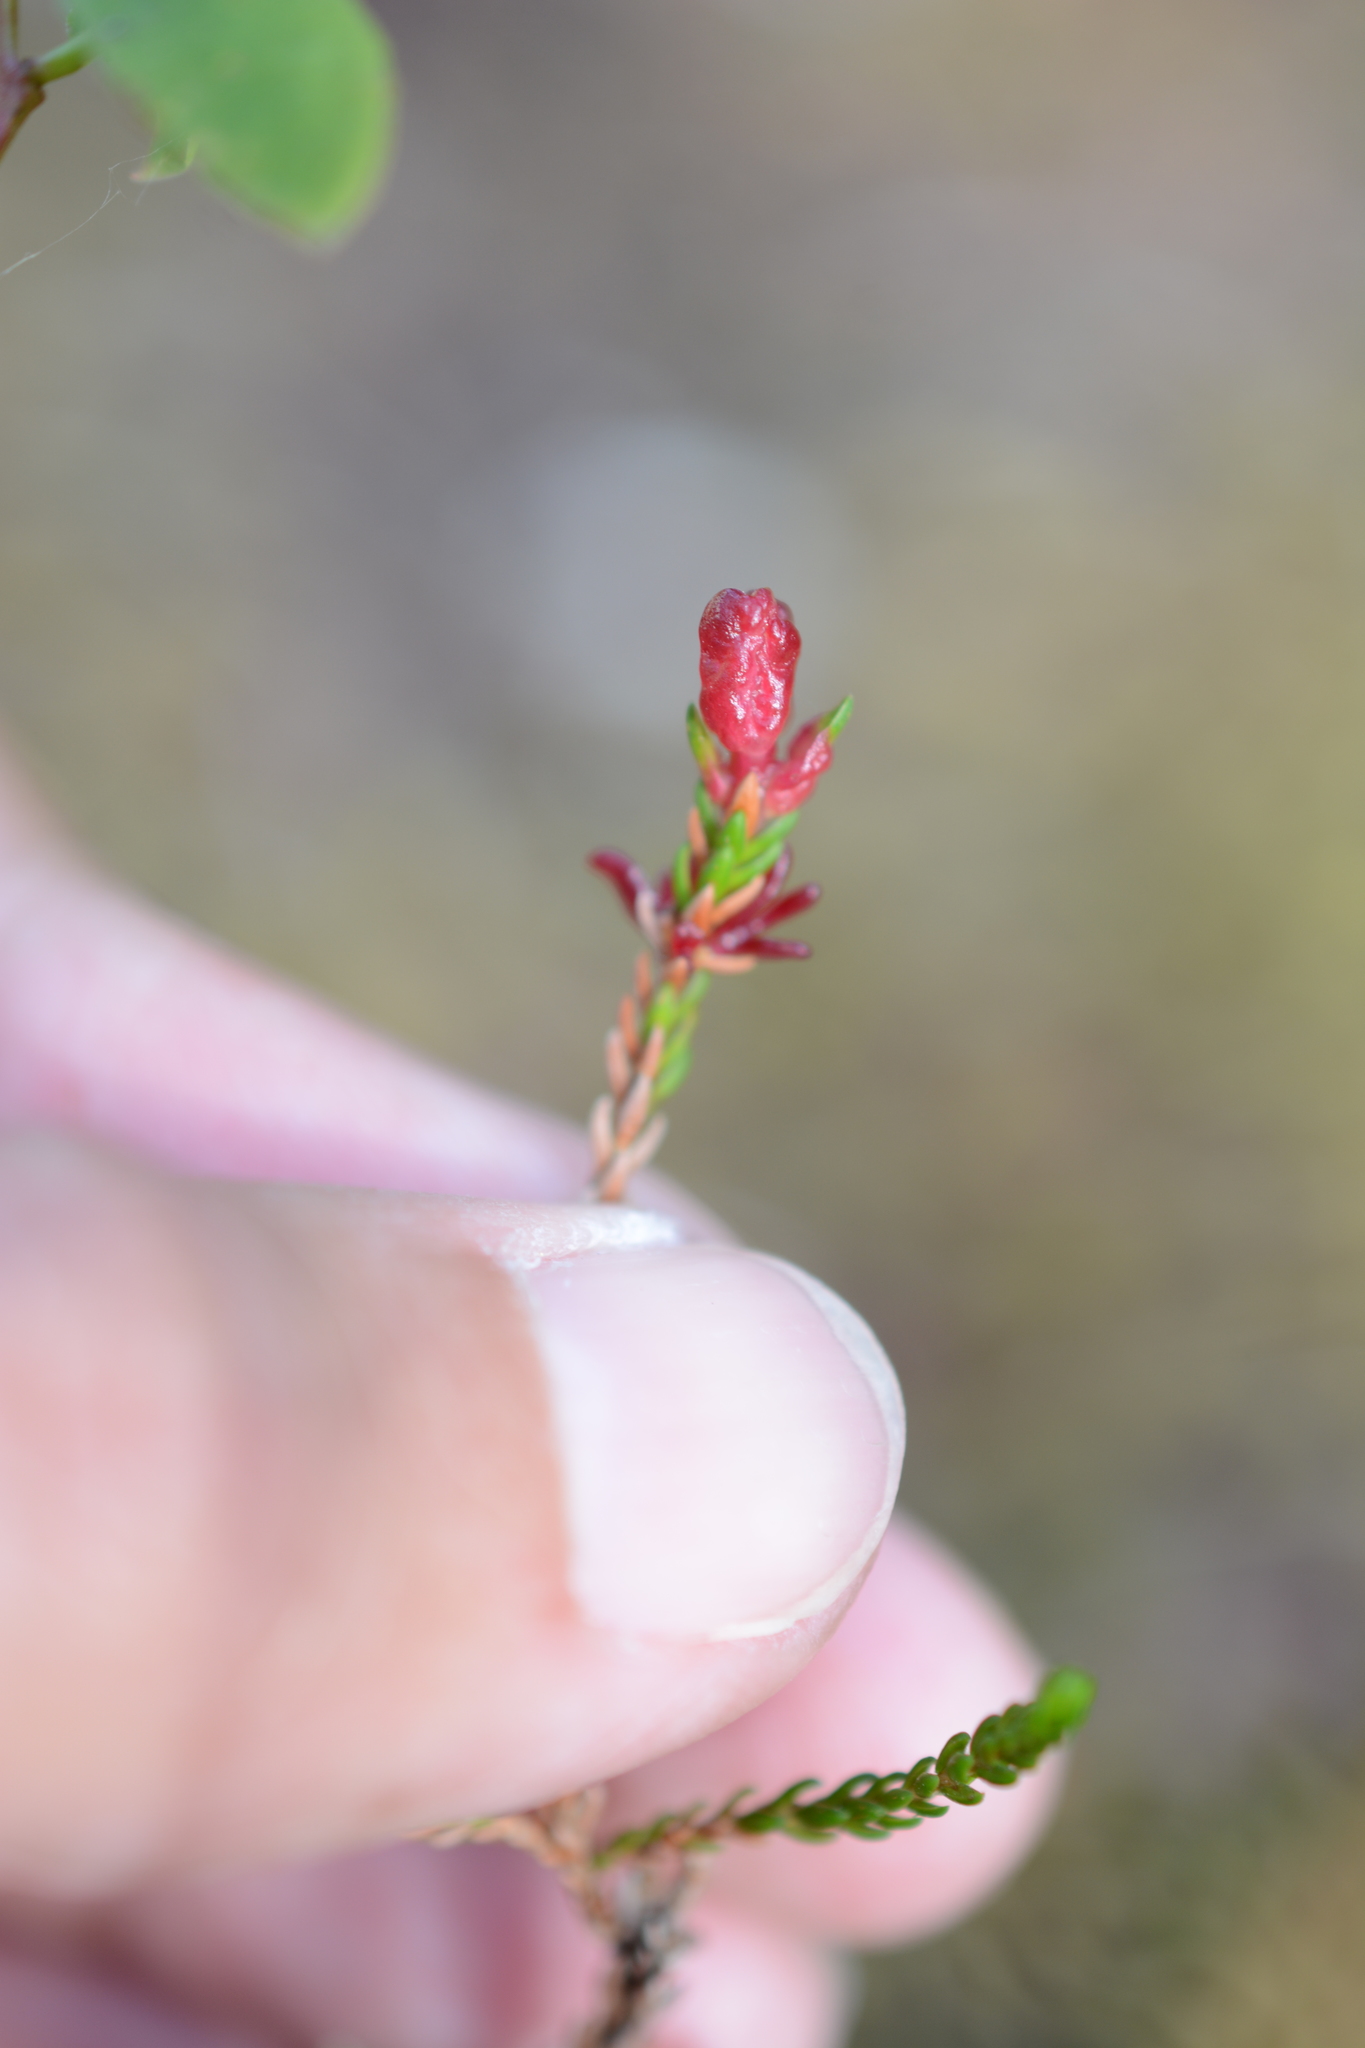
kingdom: Fungi
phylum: Basidiomycota
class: Exobasidiomycetes
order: Exobasidiales
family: Exobasidiaceae
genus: Exobasidium
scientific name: Exobasidium cassiopes
